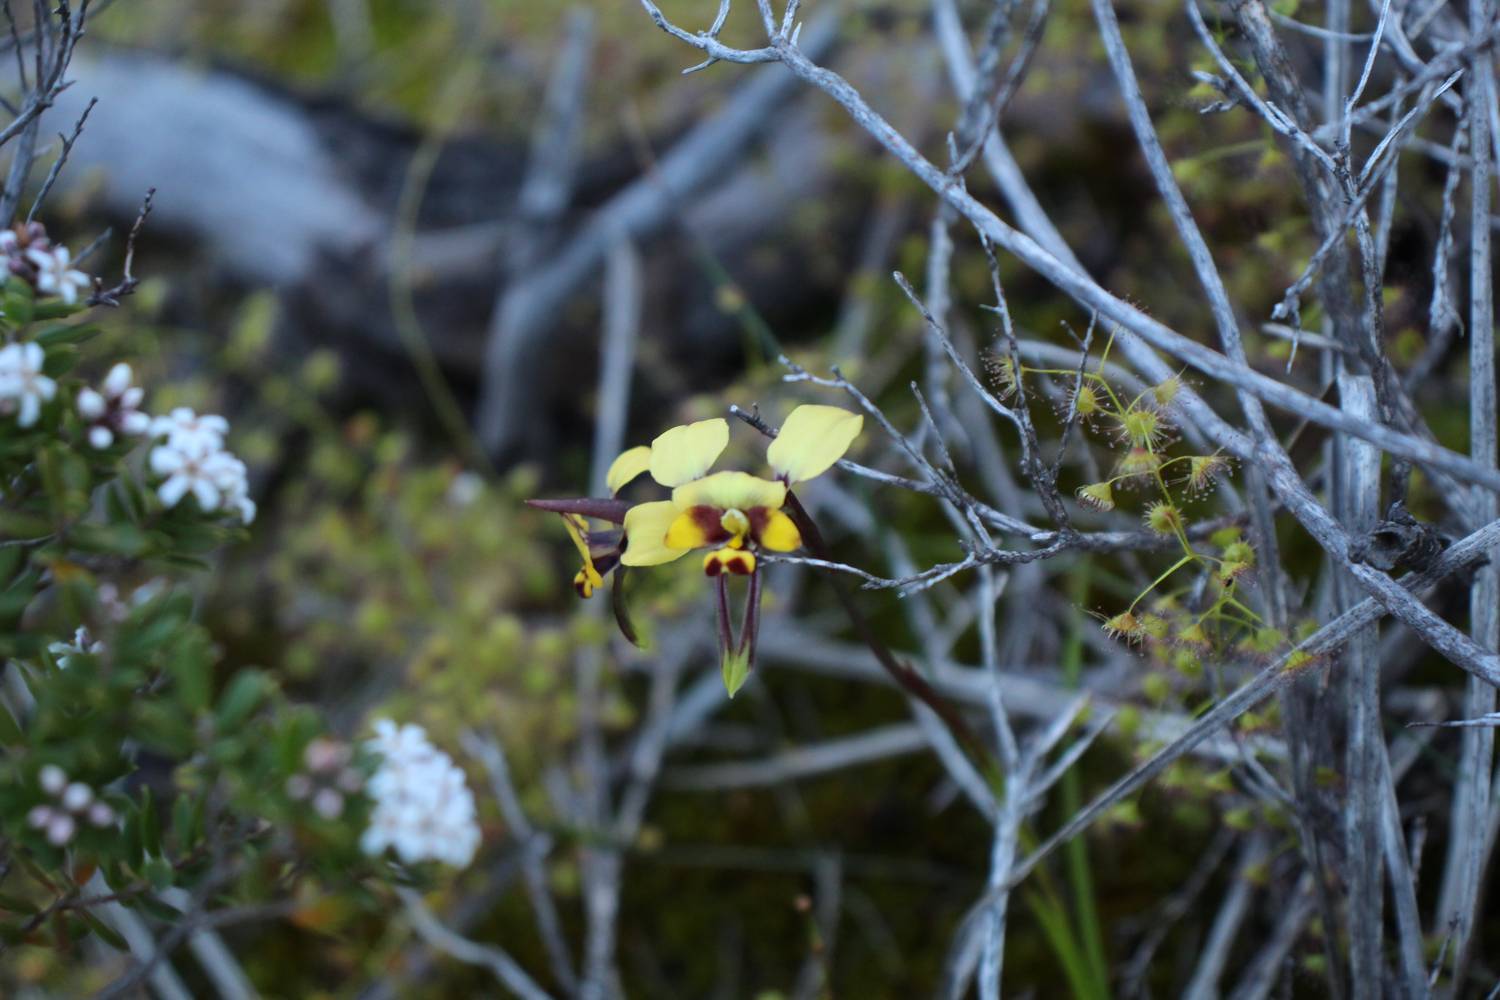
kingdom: Plantae
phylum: Tracheophyta
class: Liliopsida
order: Asparagales
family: Orchidaceae
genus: Diuris
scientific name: Diuris conspicillata
